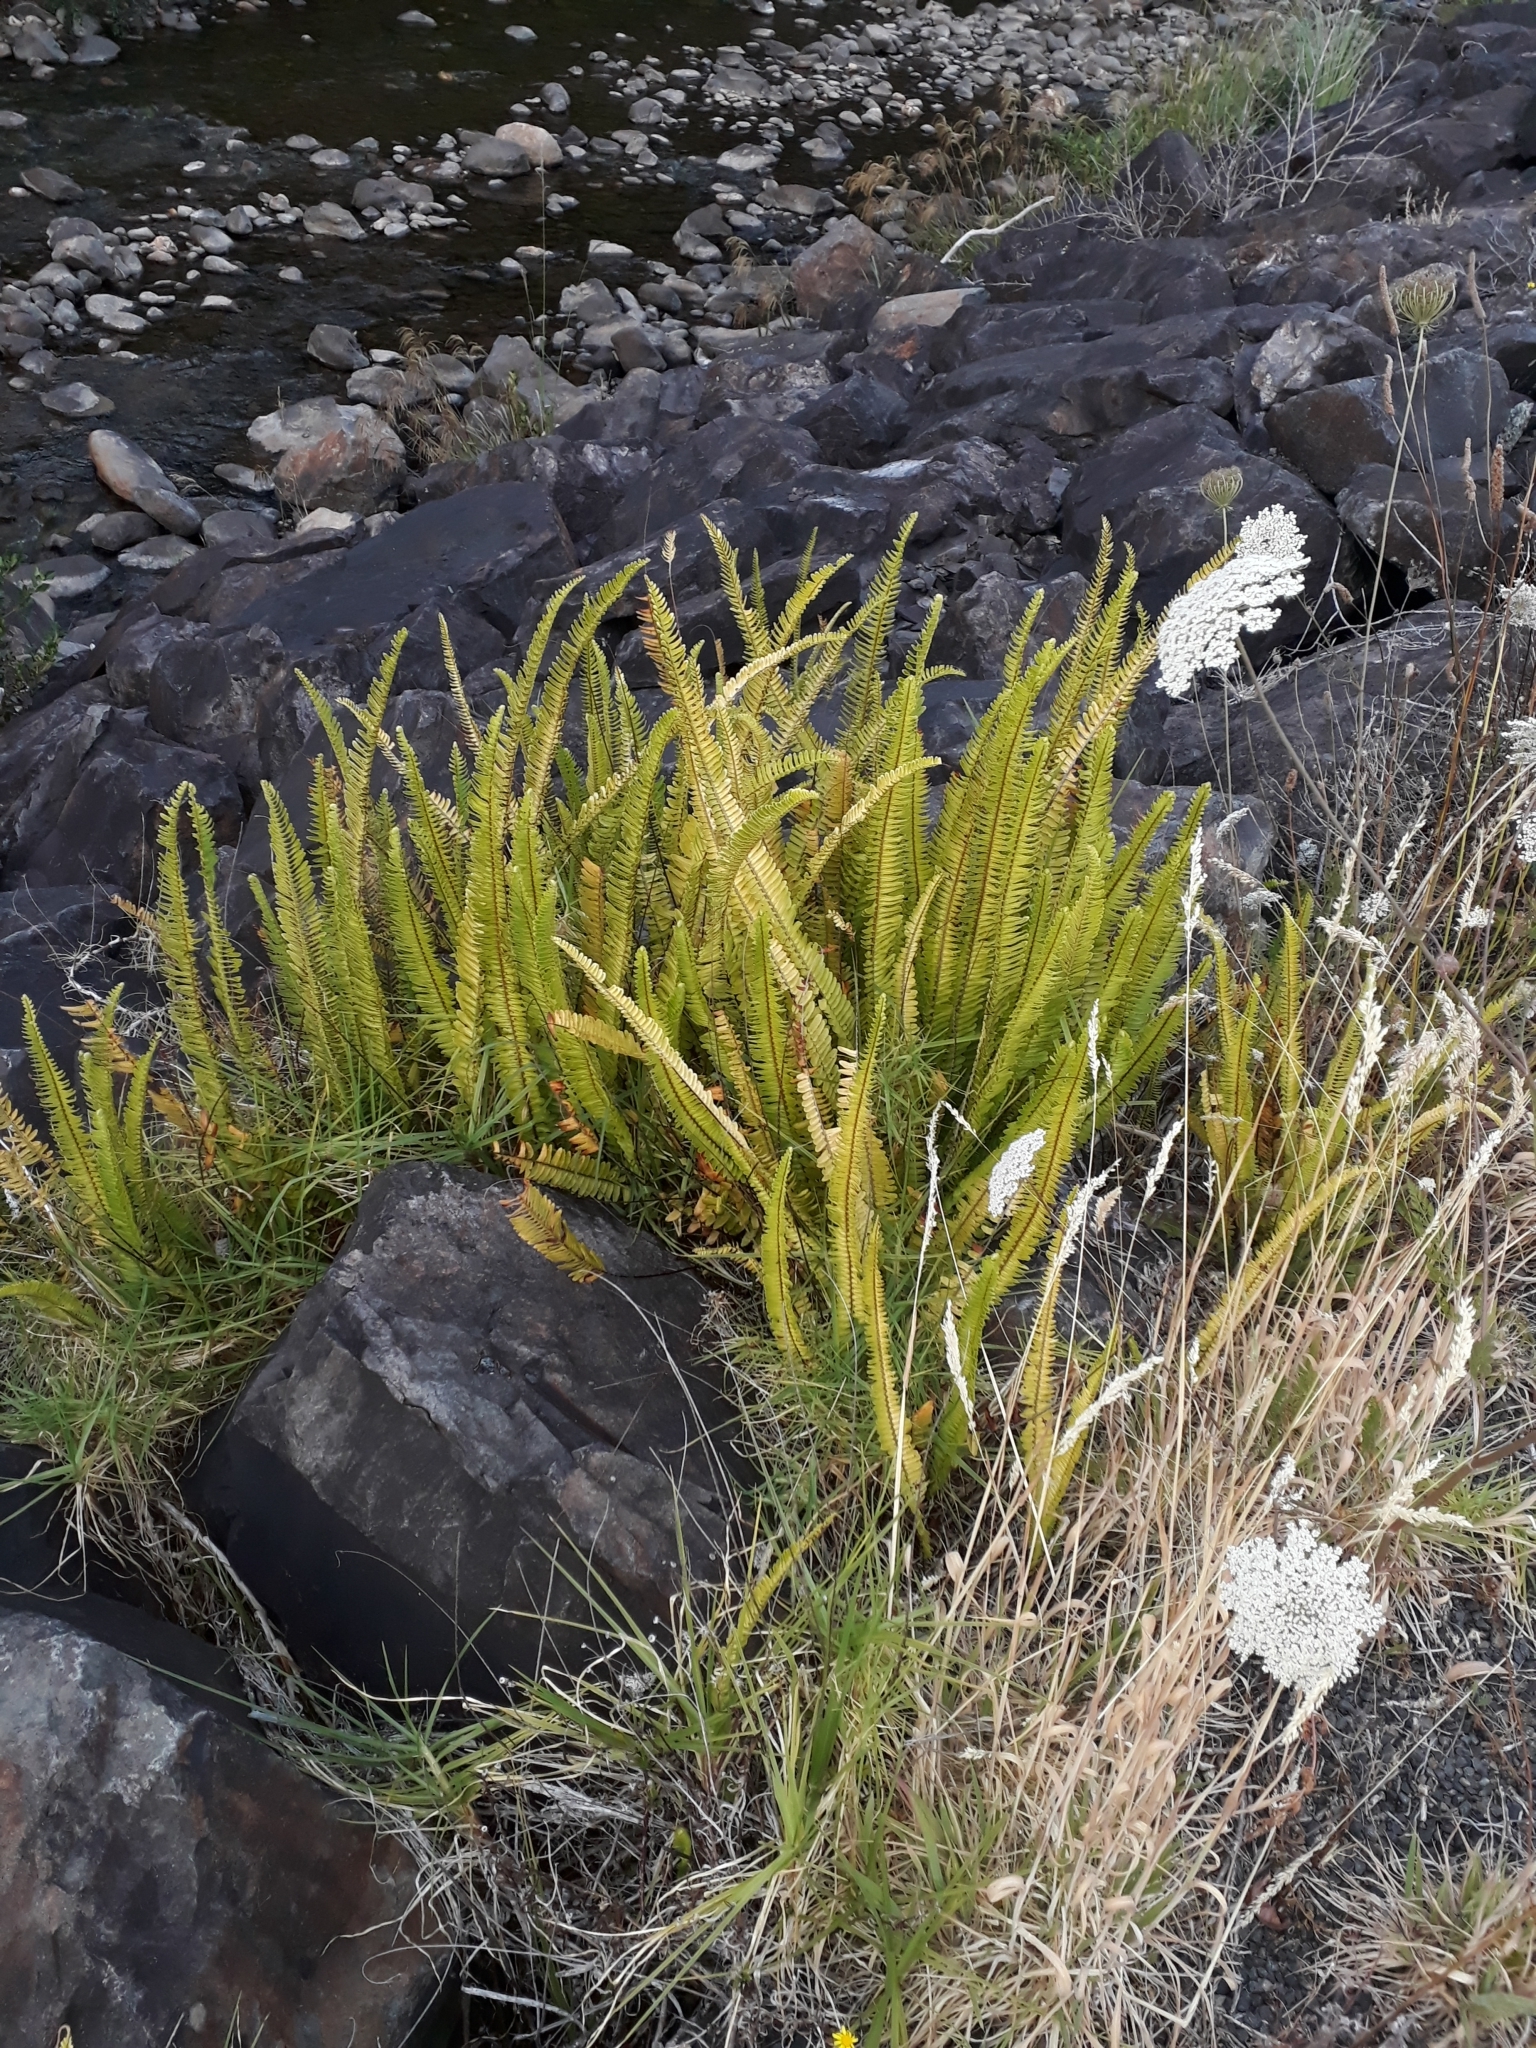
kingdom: Plantae
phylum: Tracheophyta
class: Polypodiopsida
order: Polypodiales
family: Nephrolepidaceae
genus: Nephrolepis
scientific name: Nephrolepis cordifolia
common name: Narrow swordfern
